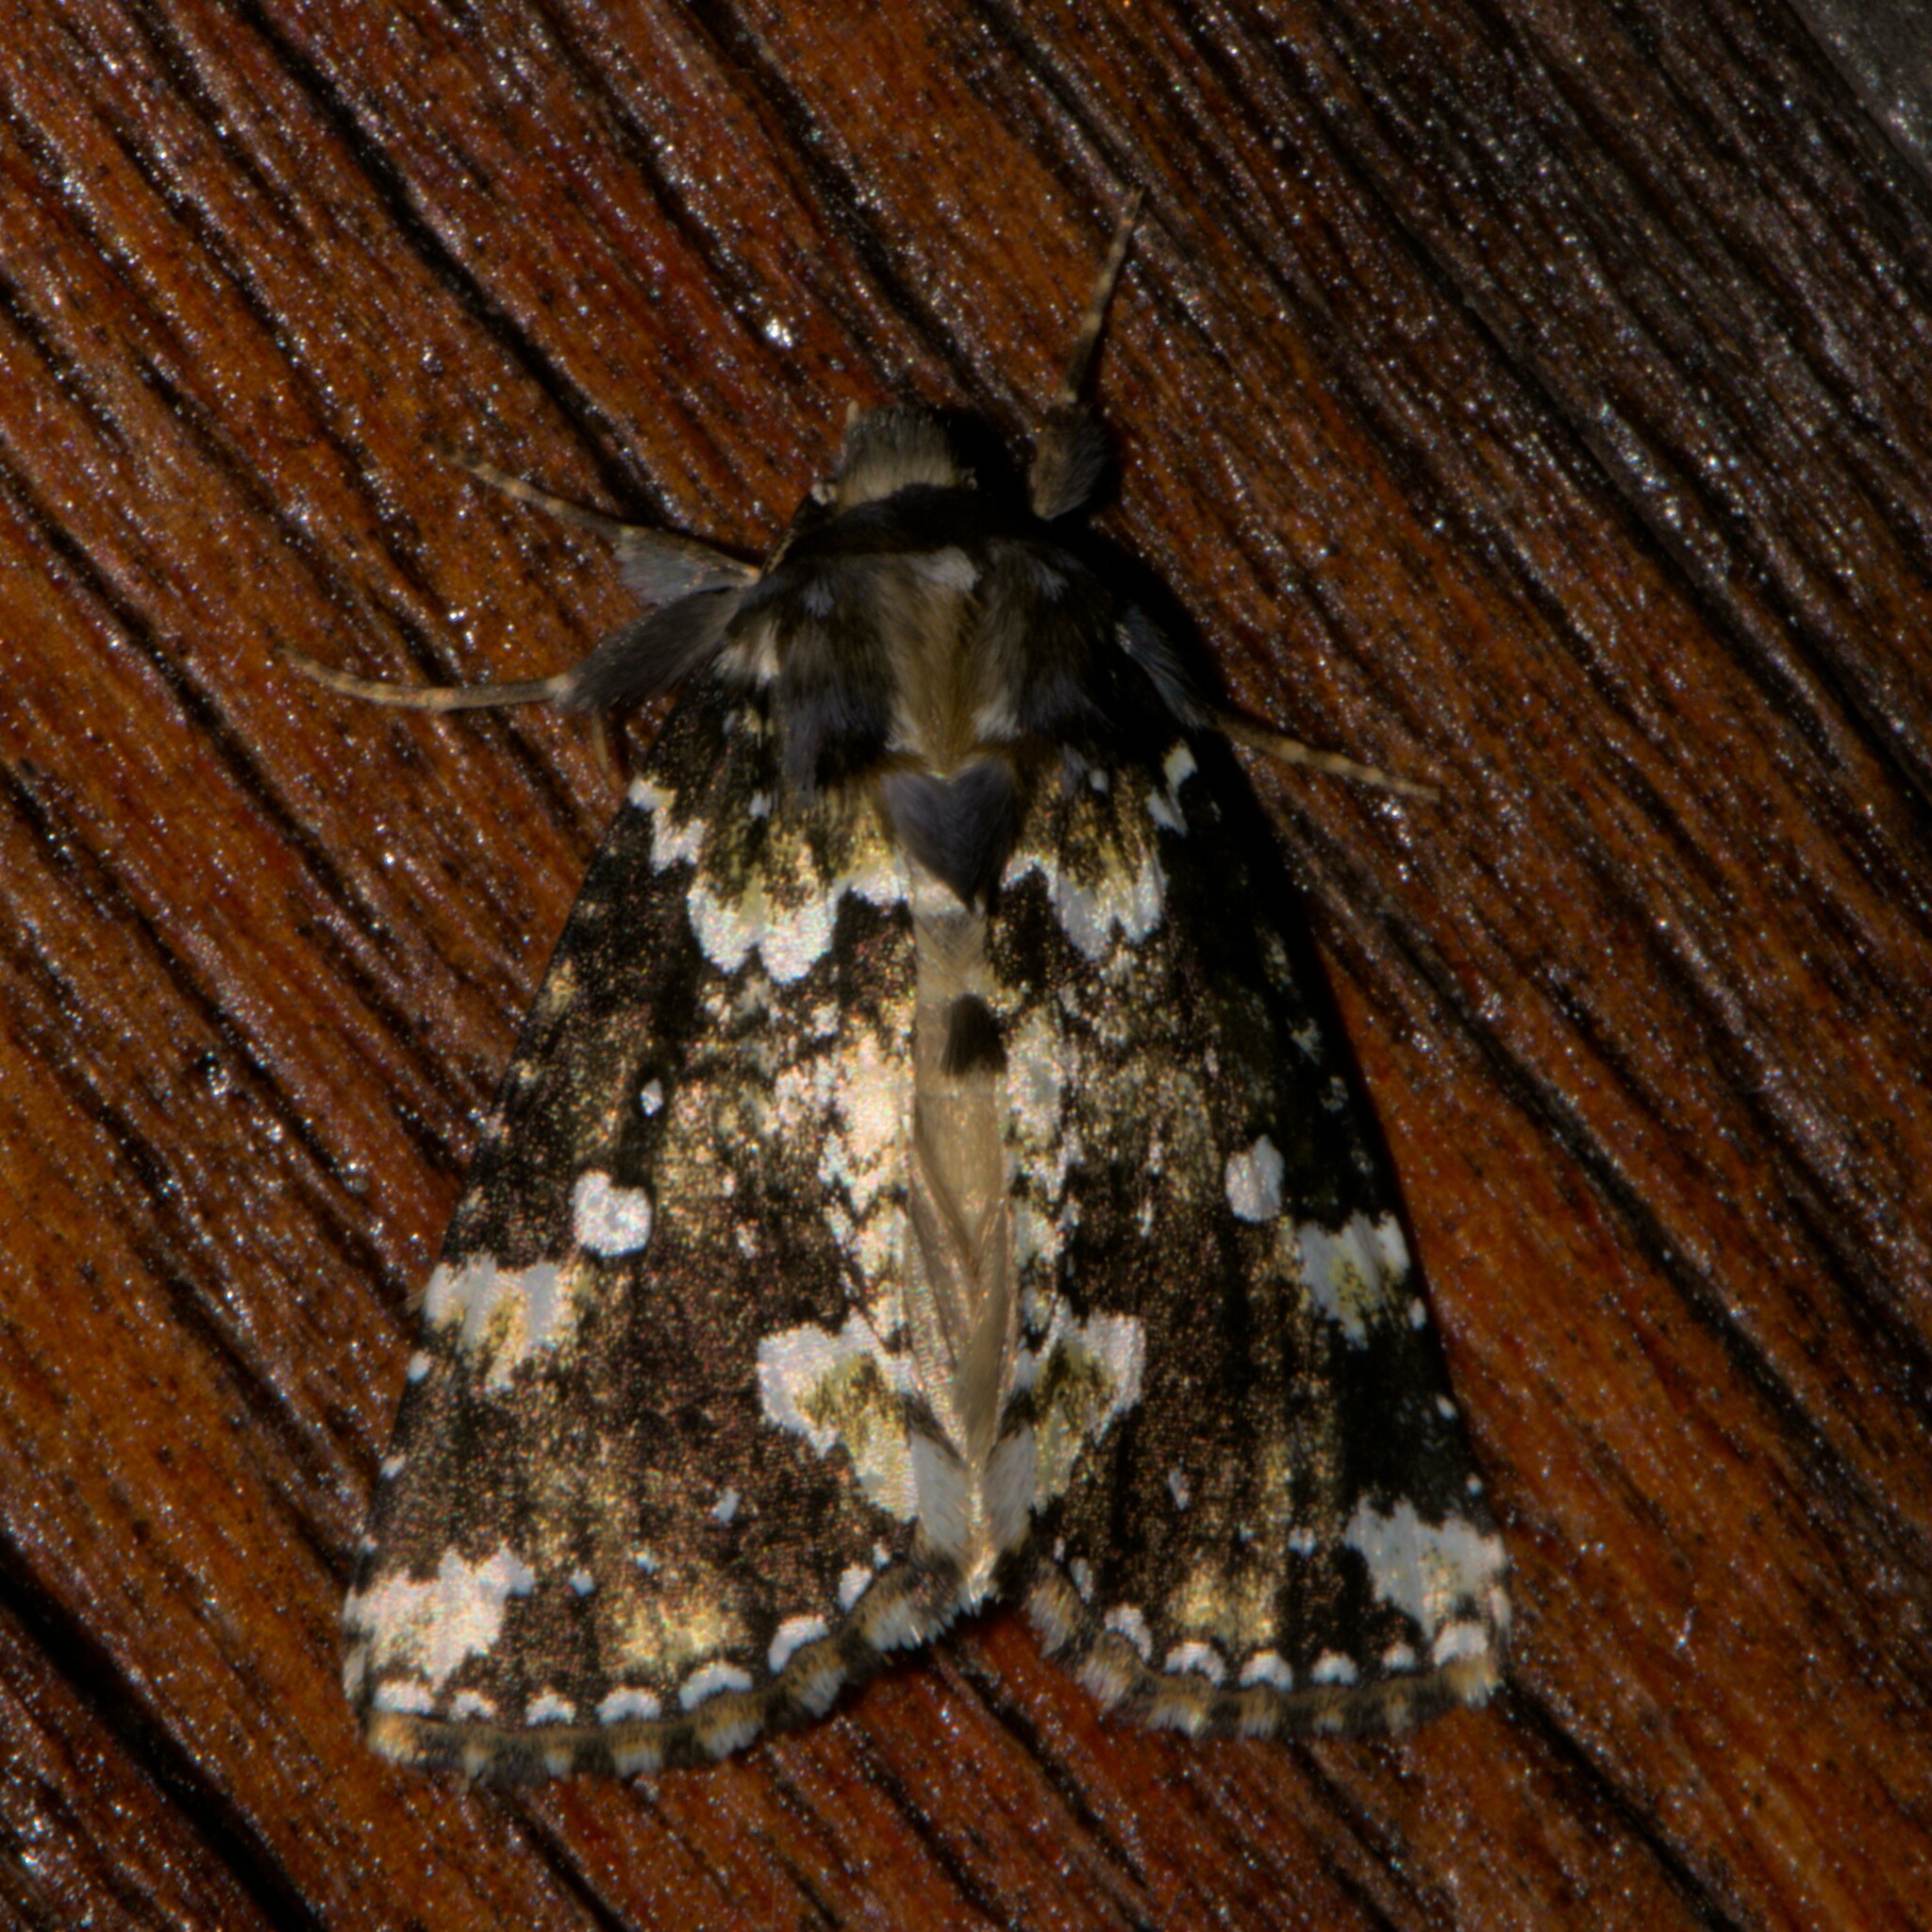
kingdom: Animalia
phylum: Arthropoda
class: Insecta
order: Lepidoptera
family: Drepanidae
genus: Gaurena
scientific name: Gaurena florens
